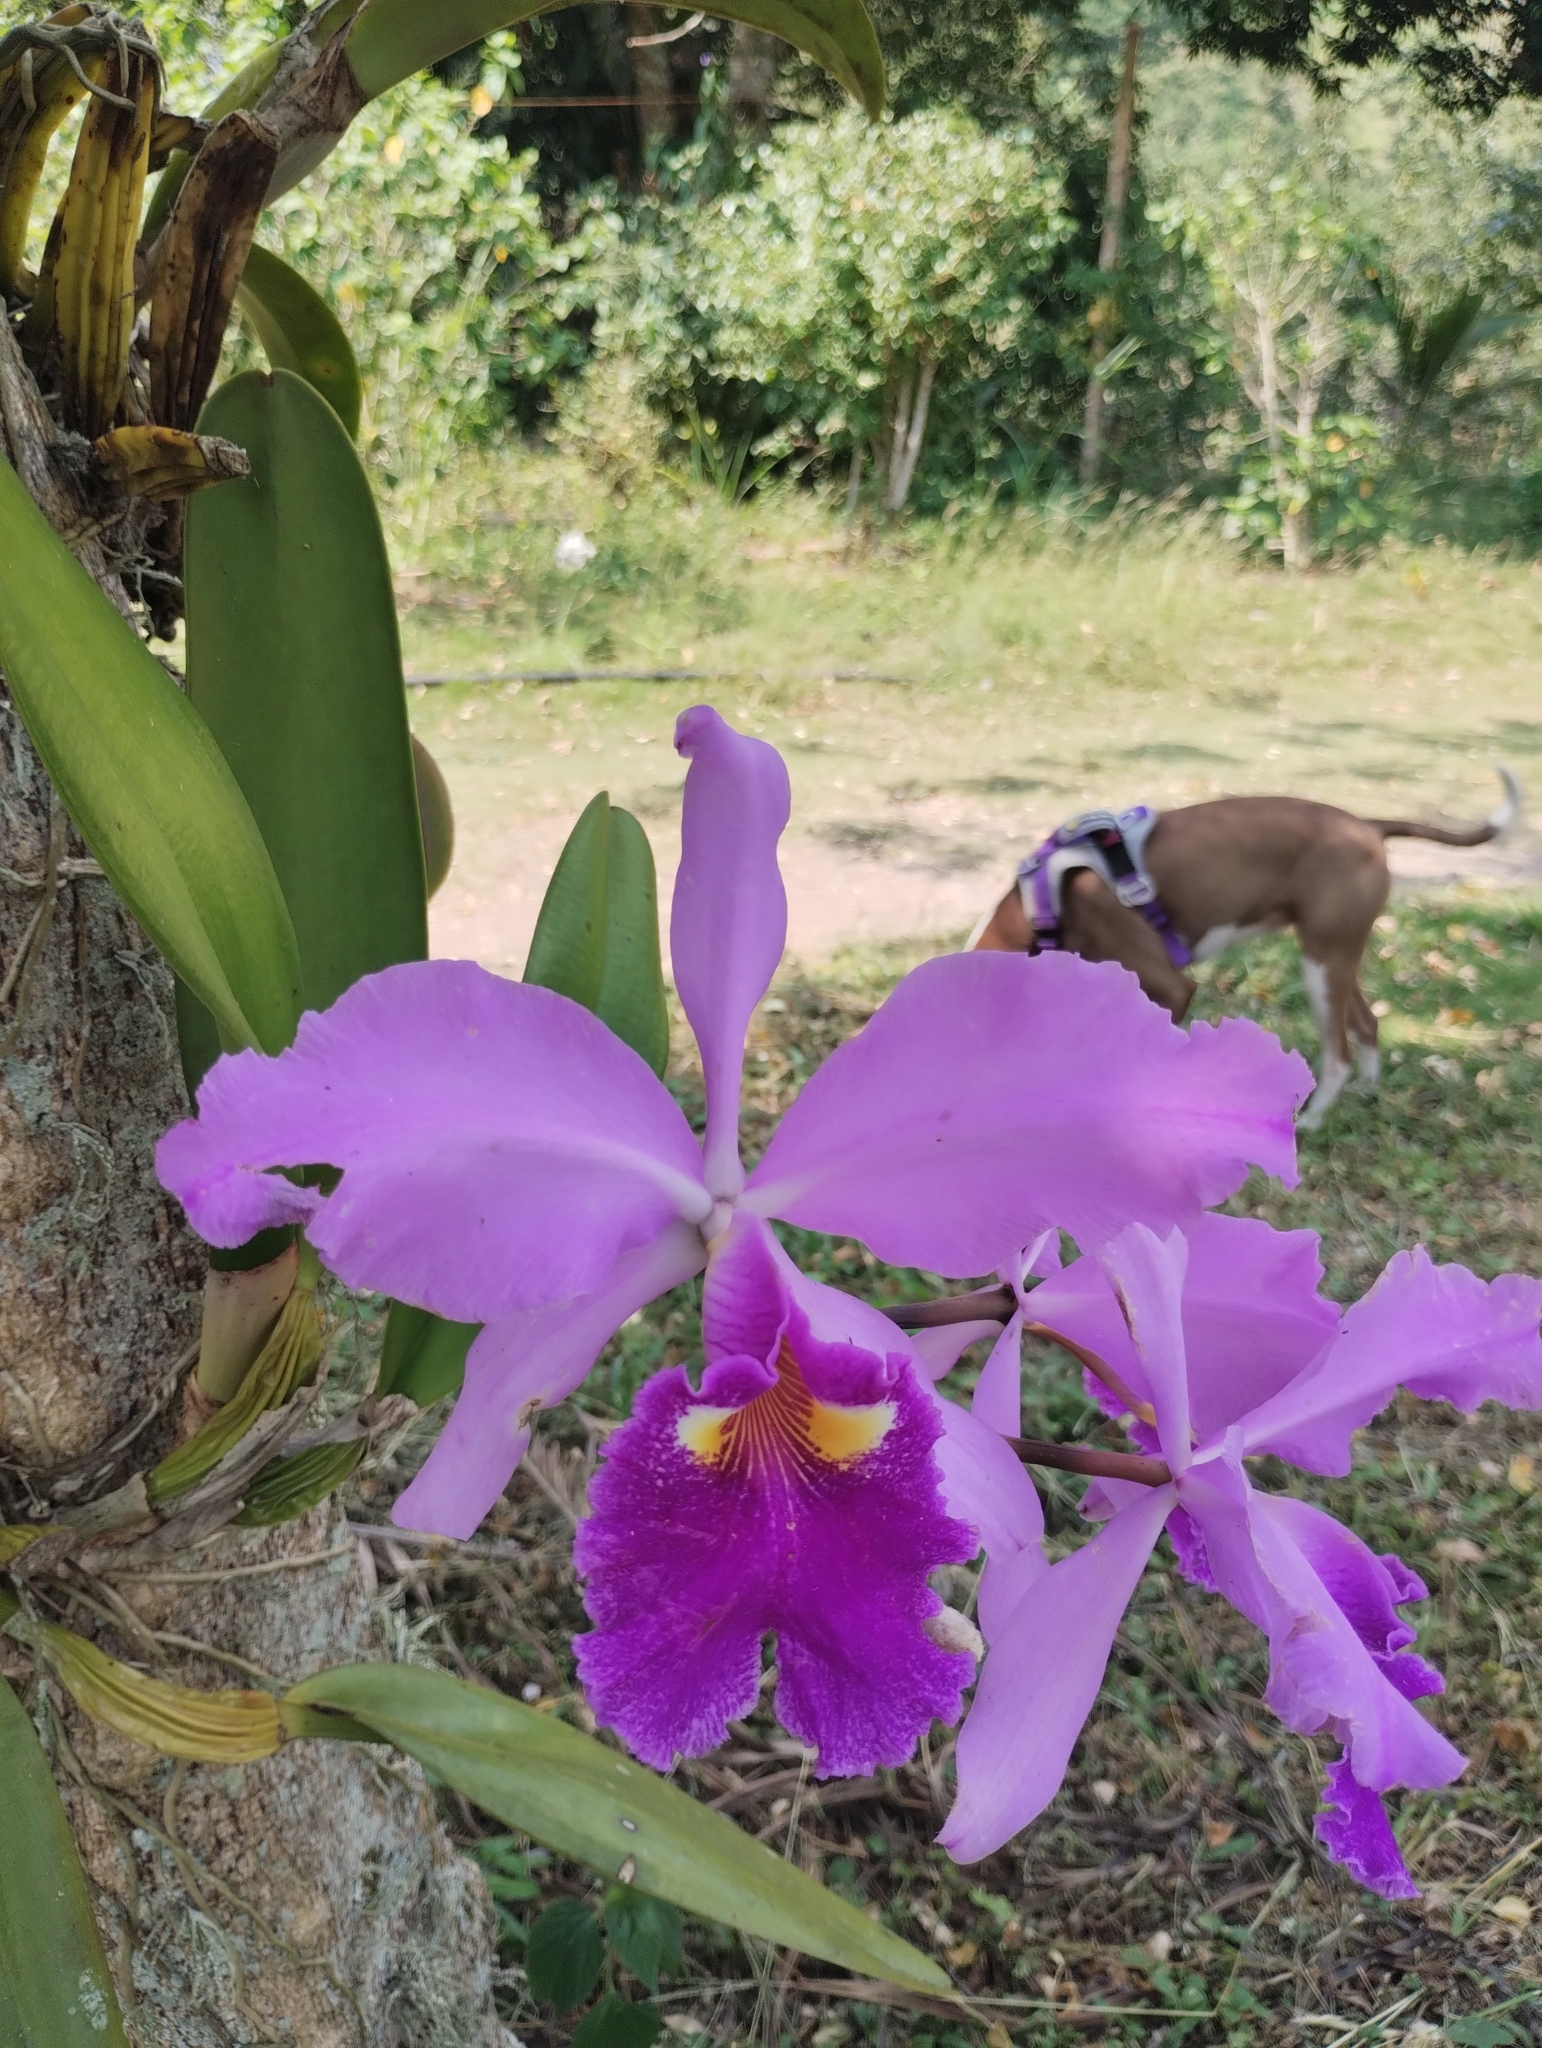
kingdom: Plantae
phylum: Tracheophyta
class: Liliopsida
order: Asparagales
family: Orchidaceae
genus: Cattleya
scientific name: Cattleya warscewiczii
